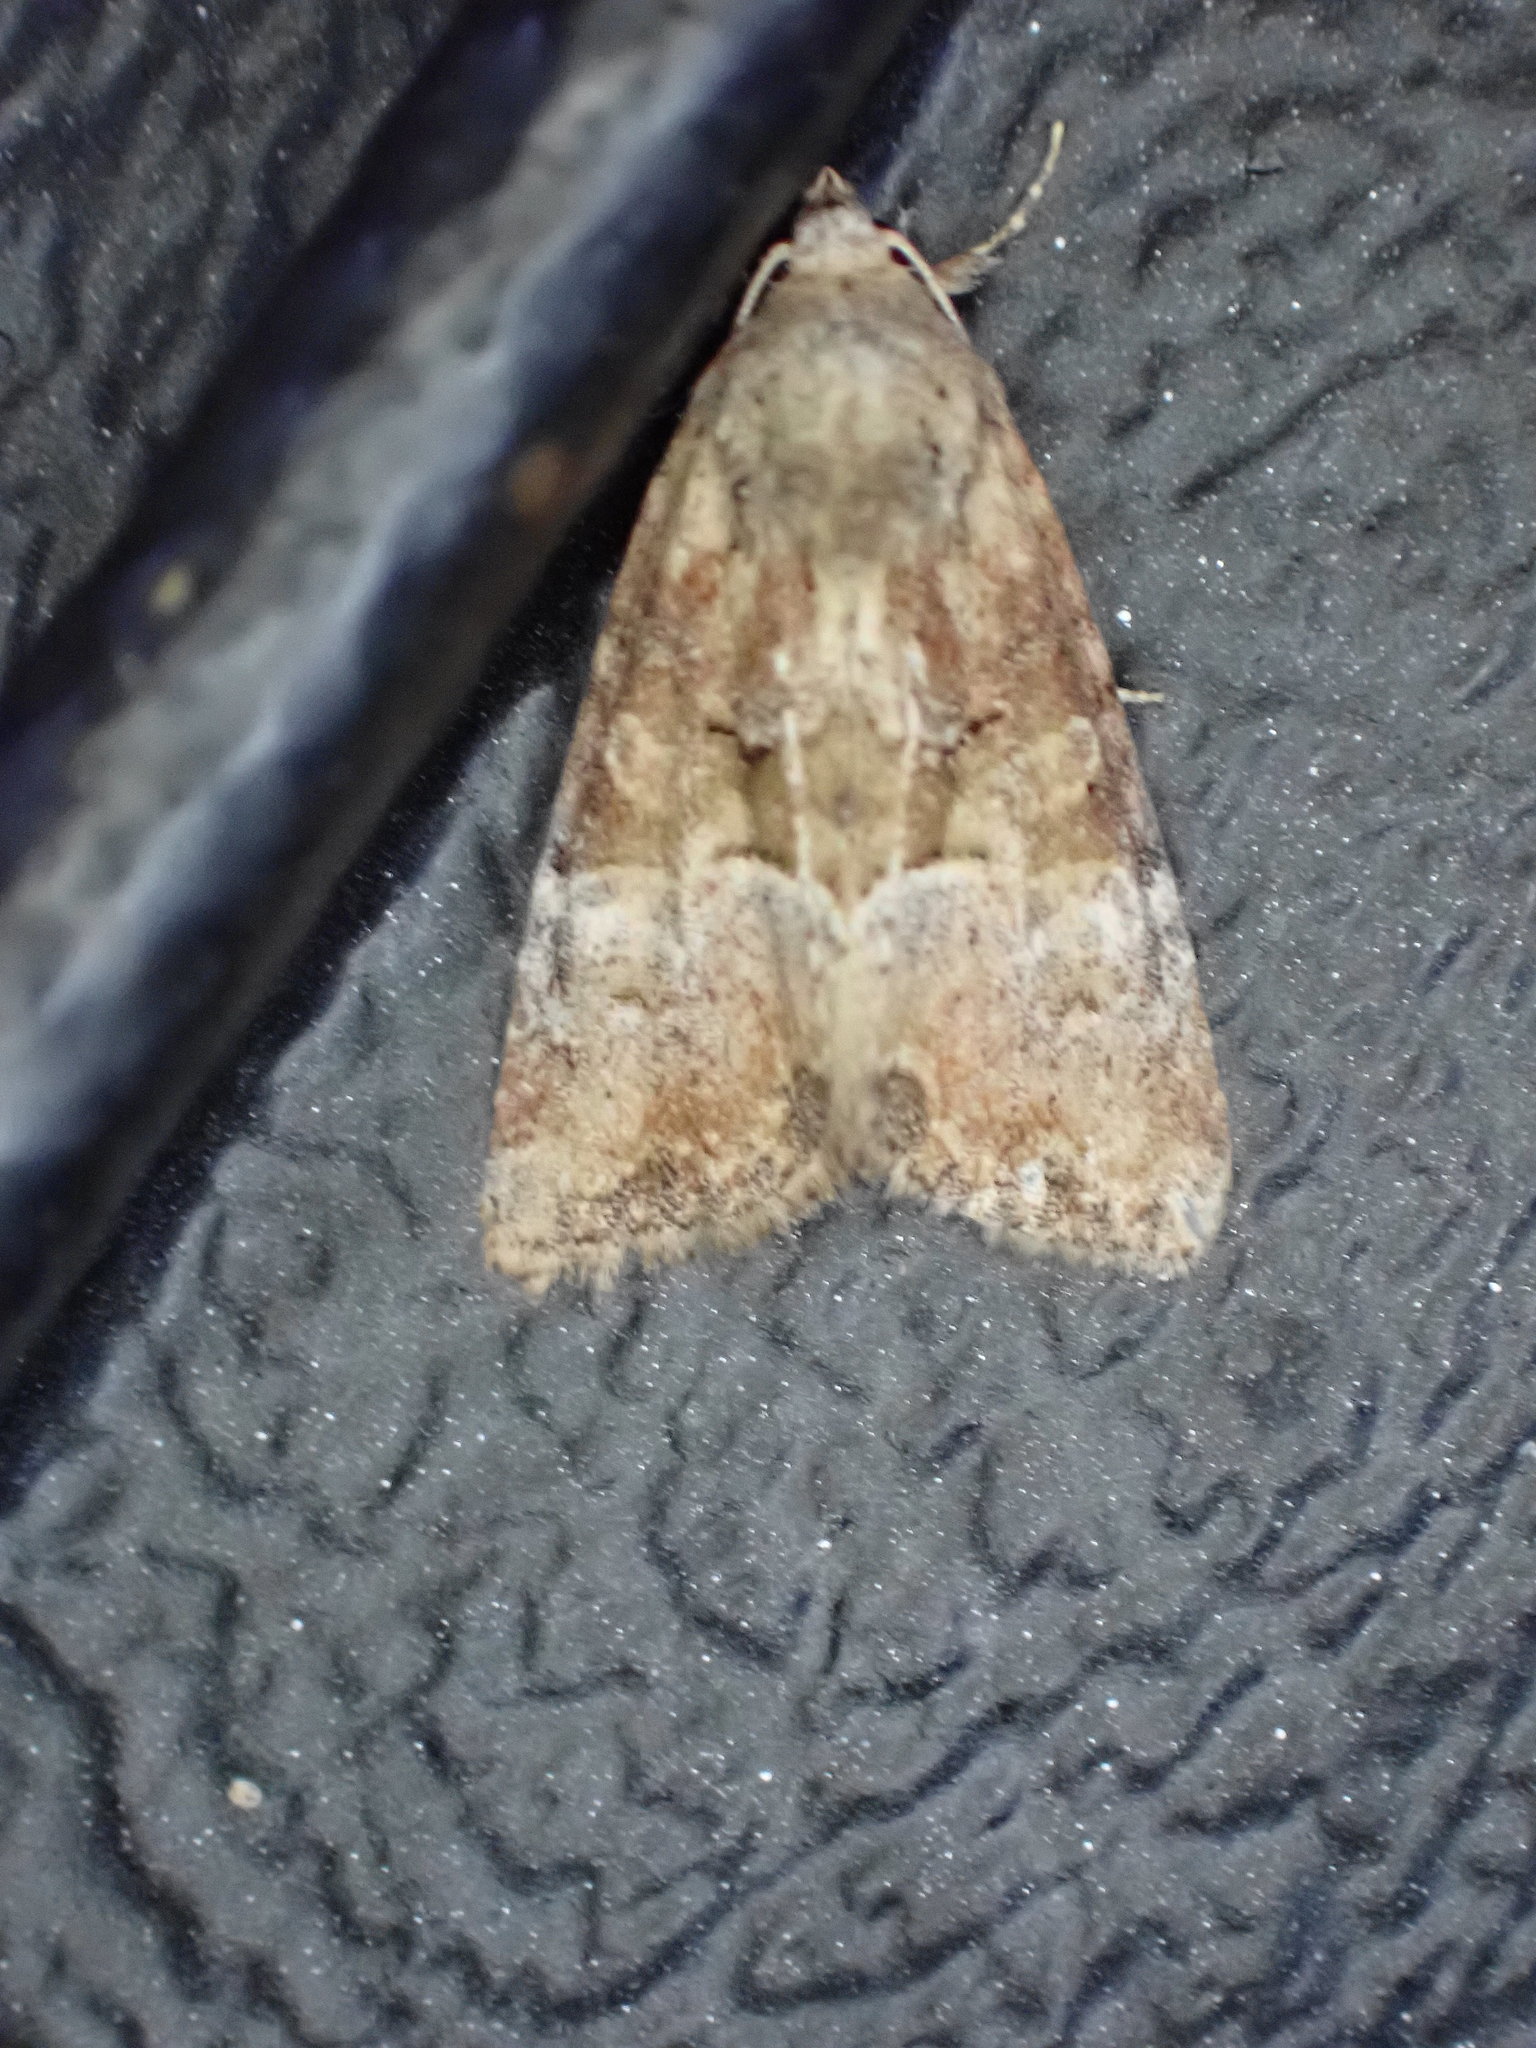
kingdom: Animalia
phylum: Arthropoda
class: Insecta
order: Lepidoptera
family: Noctuidae
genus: Mesoligia
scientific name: Mesoligia furuncula
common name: Cloaked minor
